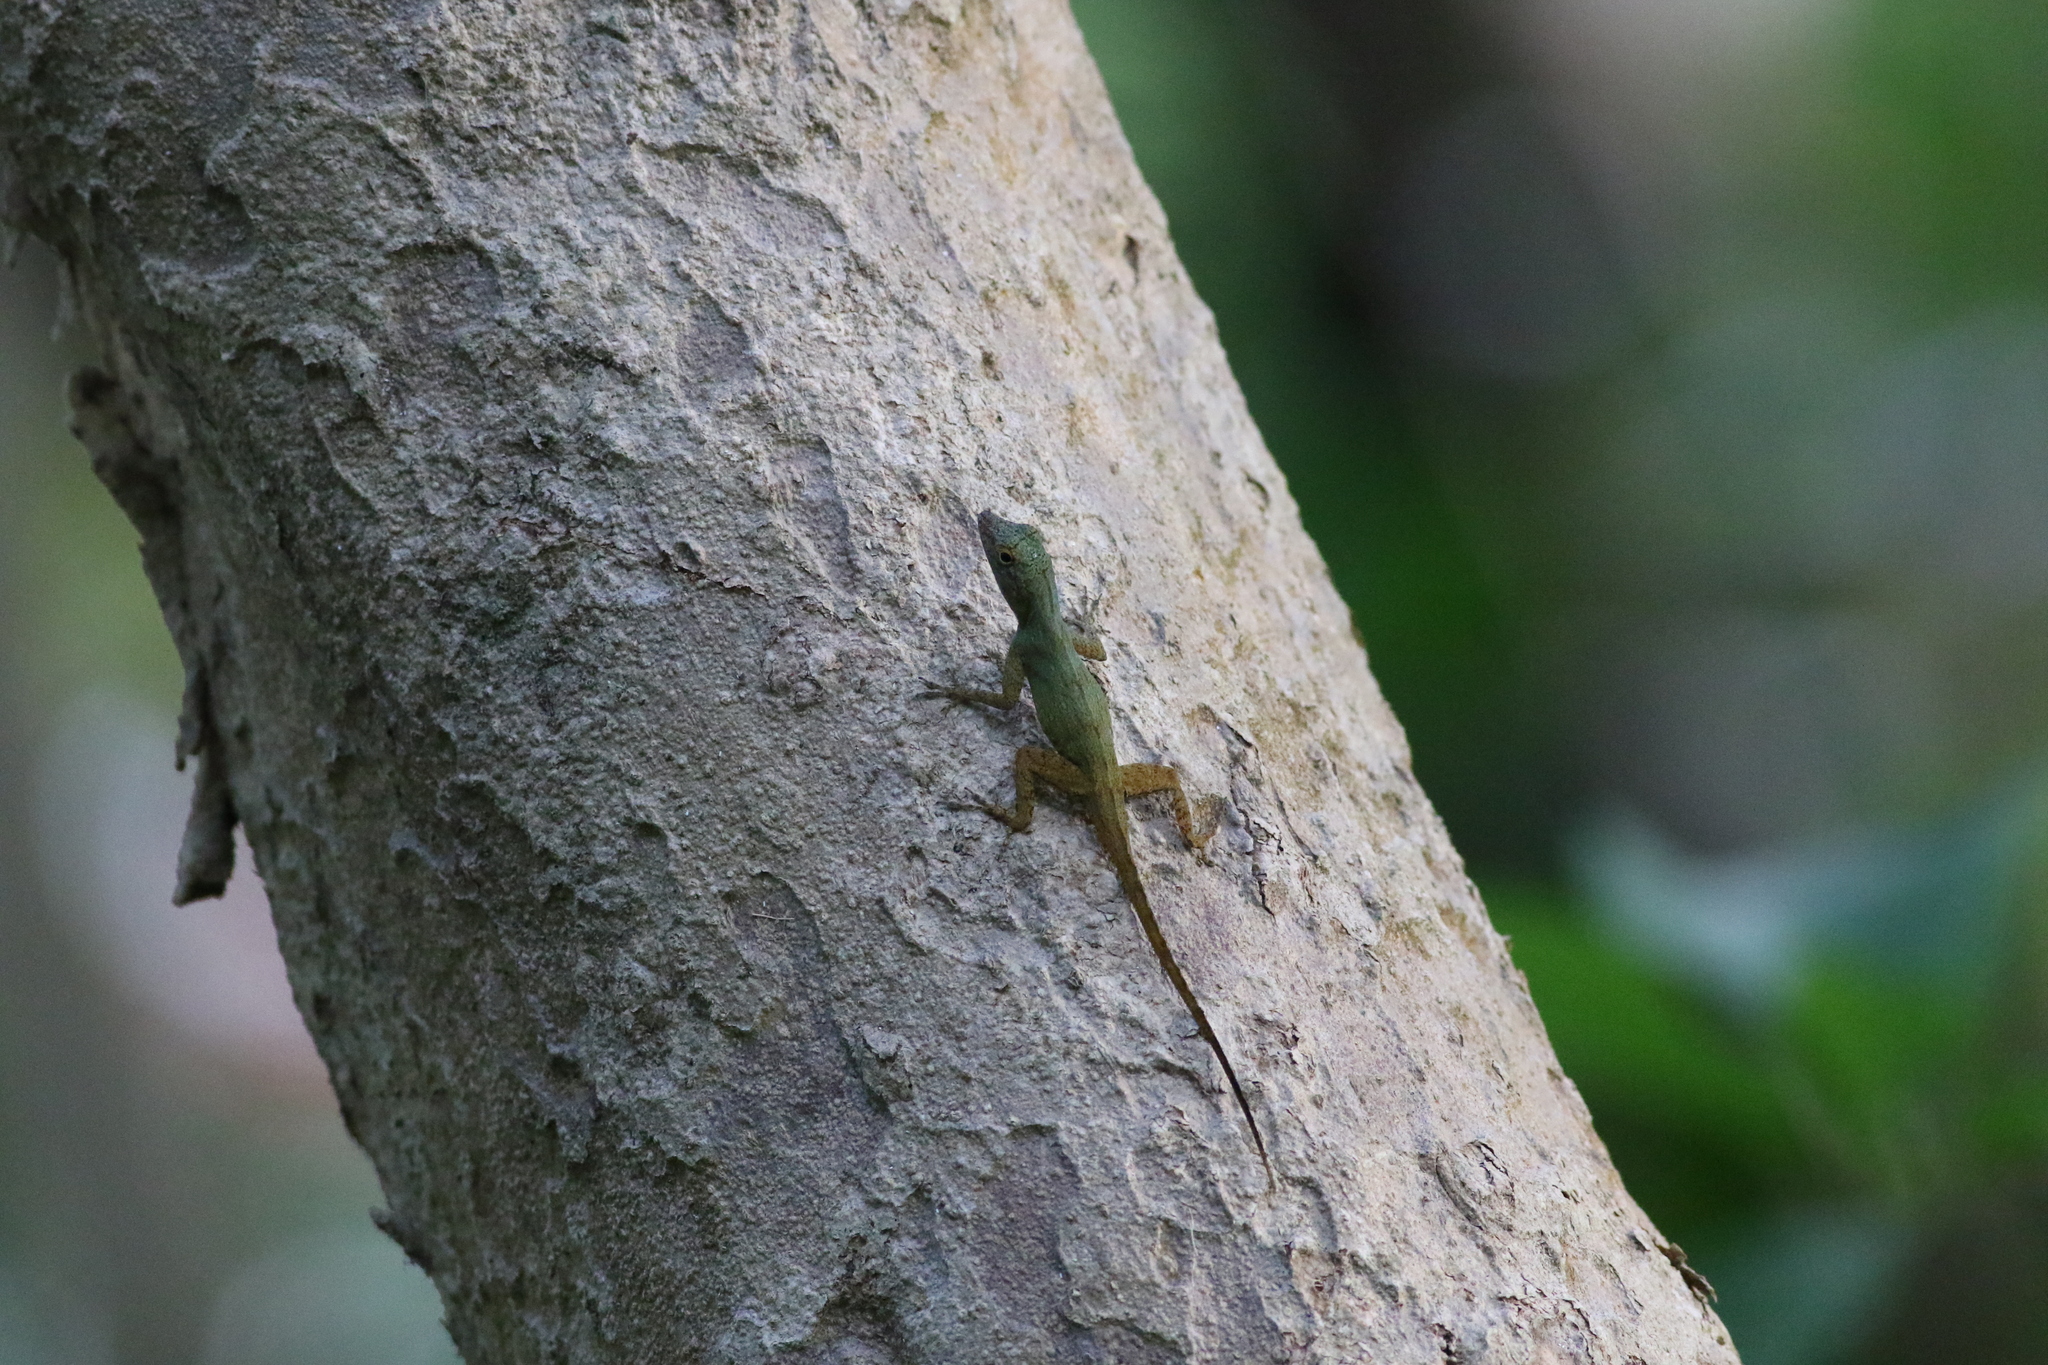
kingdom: Animalia
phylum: Chordata
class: Squamata
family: Dactyloidae
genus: Anolis
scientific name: Anolis distichus
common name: Bark anole
